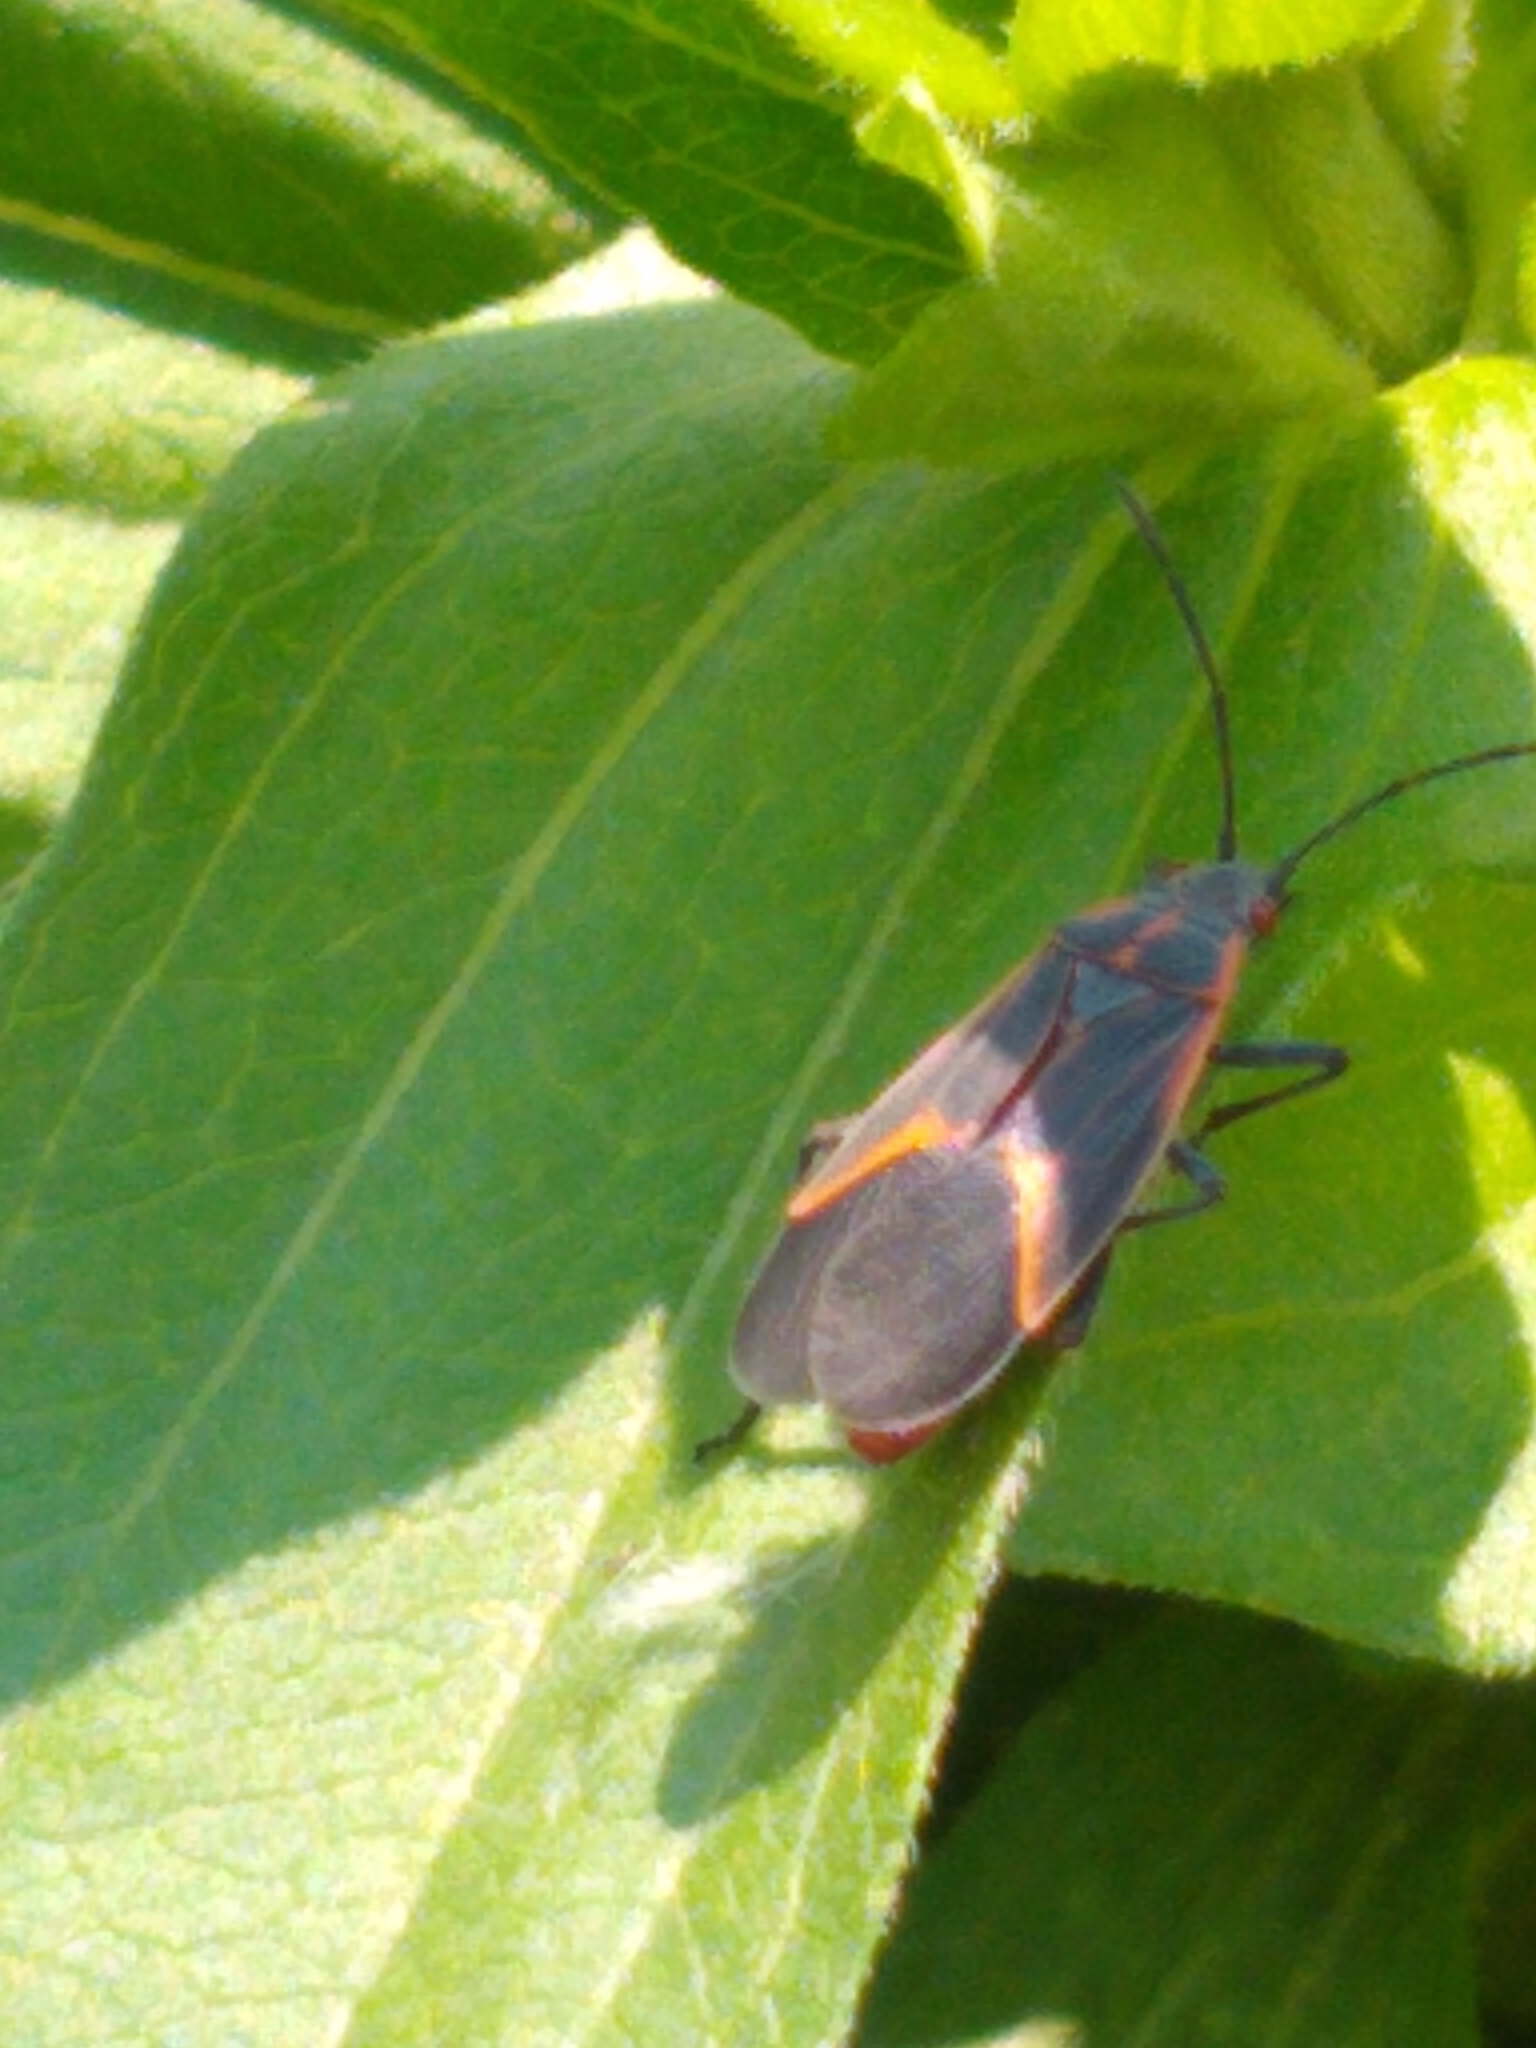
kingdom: Animalia
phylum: Arthropoda
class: Insecta
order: Hemiptera
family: Rhopalidae
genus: Boisea
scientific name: Boisea trivittata
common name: Boxelder bug
